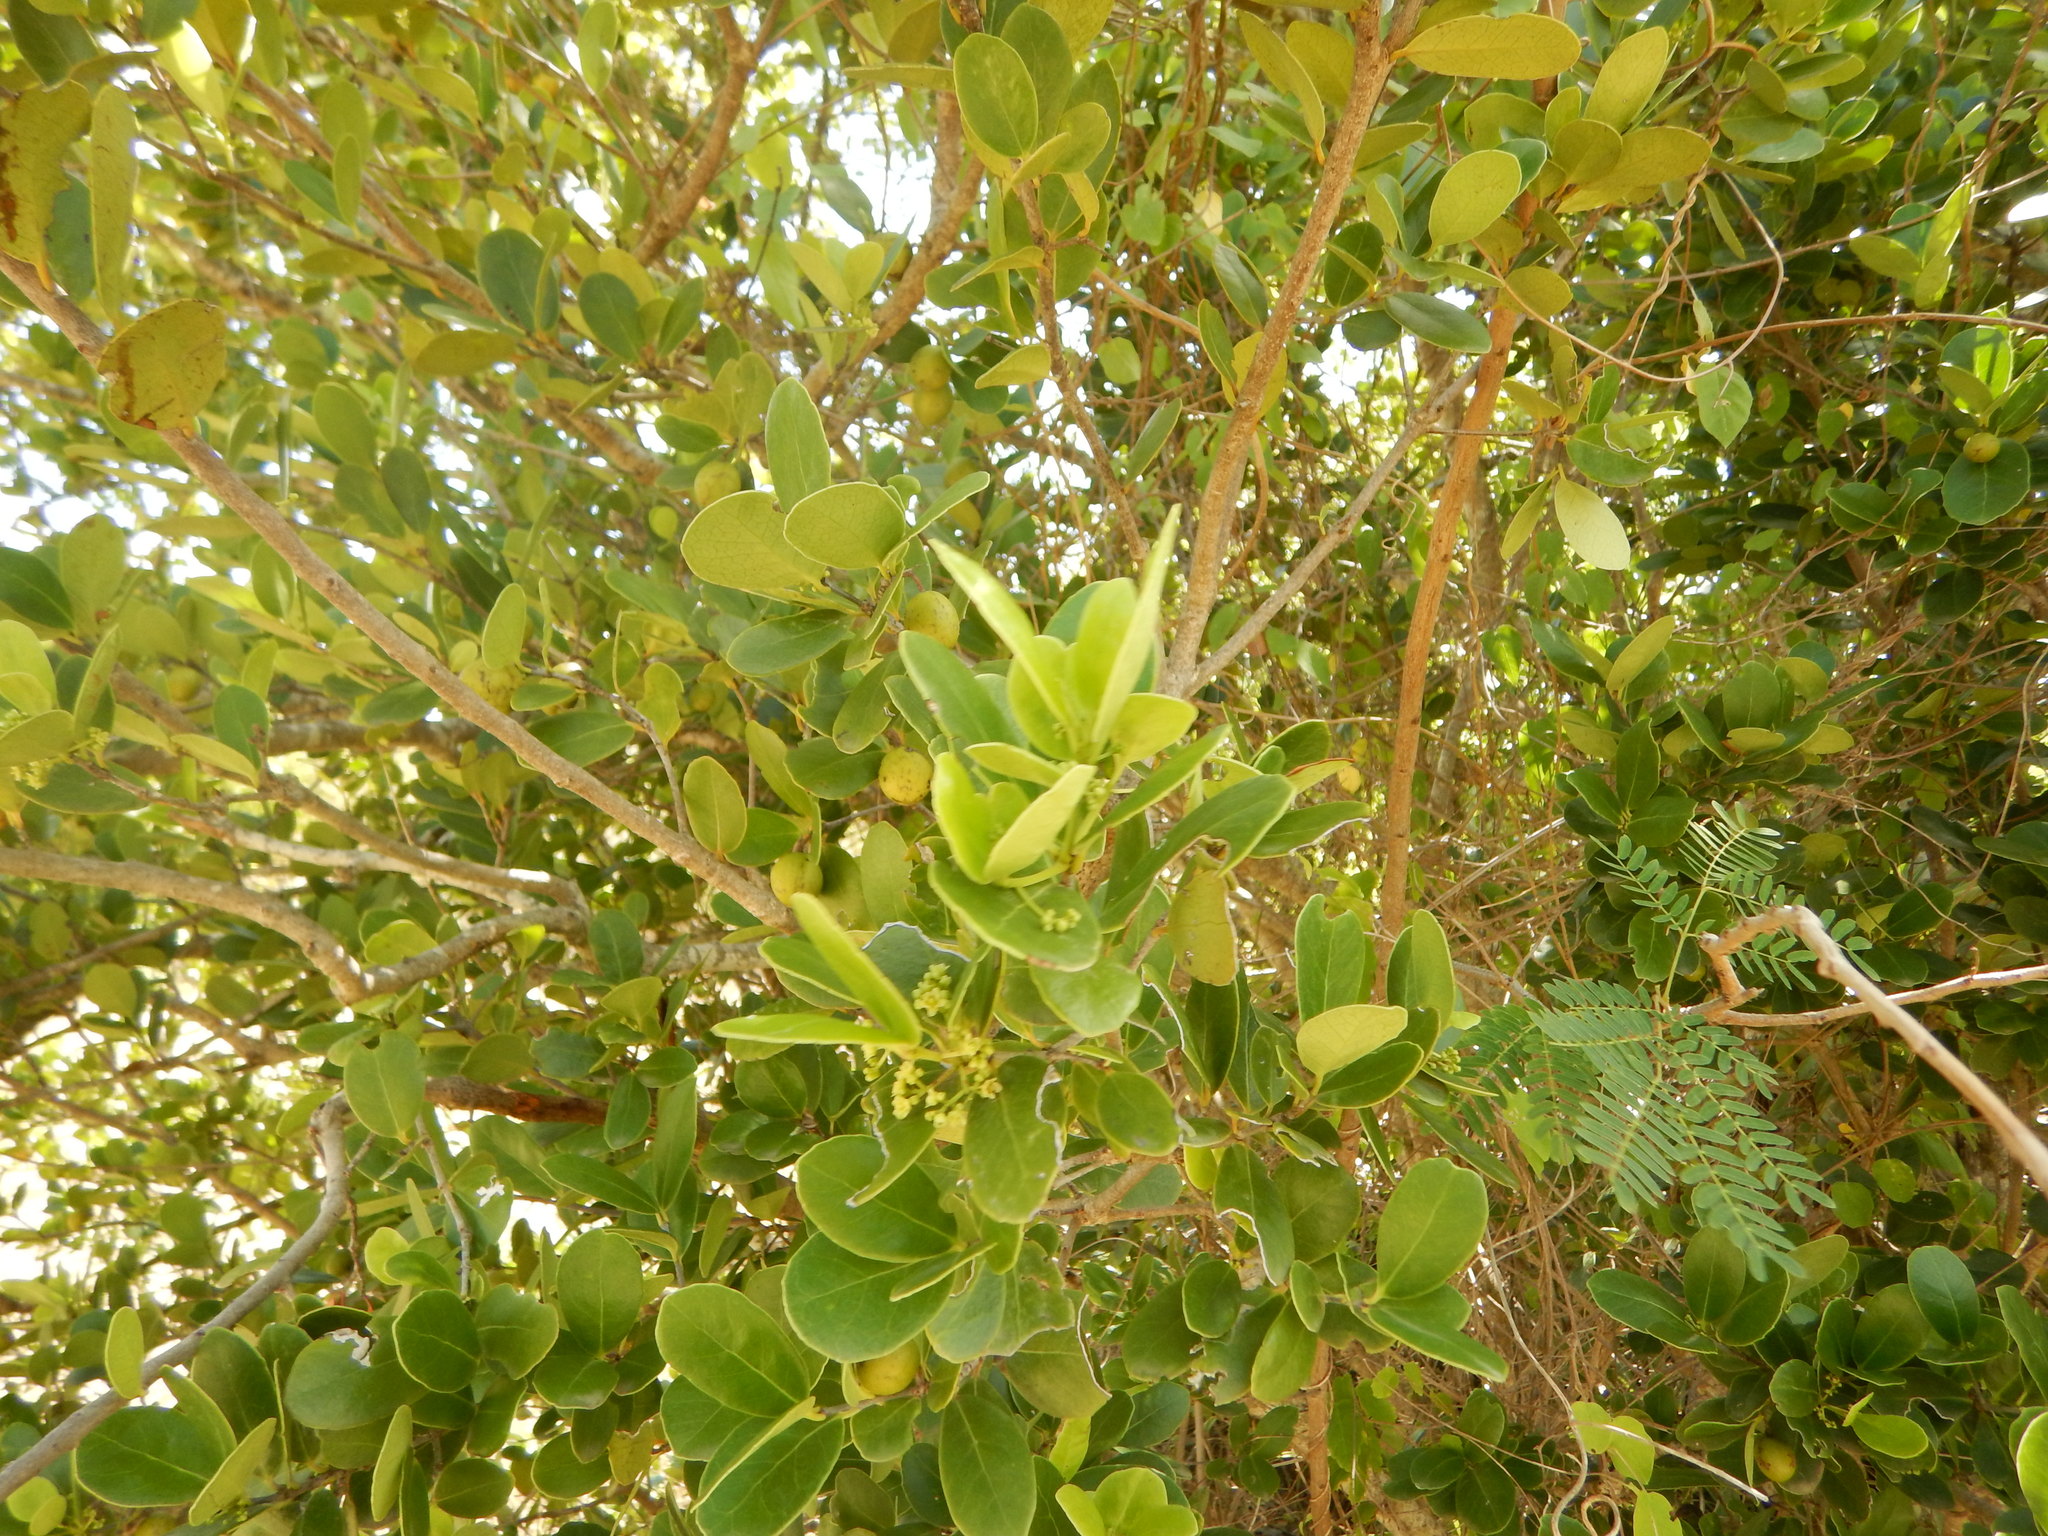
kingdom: Plantae
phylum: Tracheophyta
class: Magnoliopsida
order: Celastrales
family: Celastraceae
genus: Elaeodendron
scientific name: Elaeodendron xylocarpum
